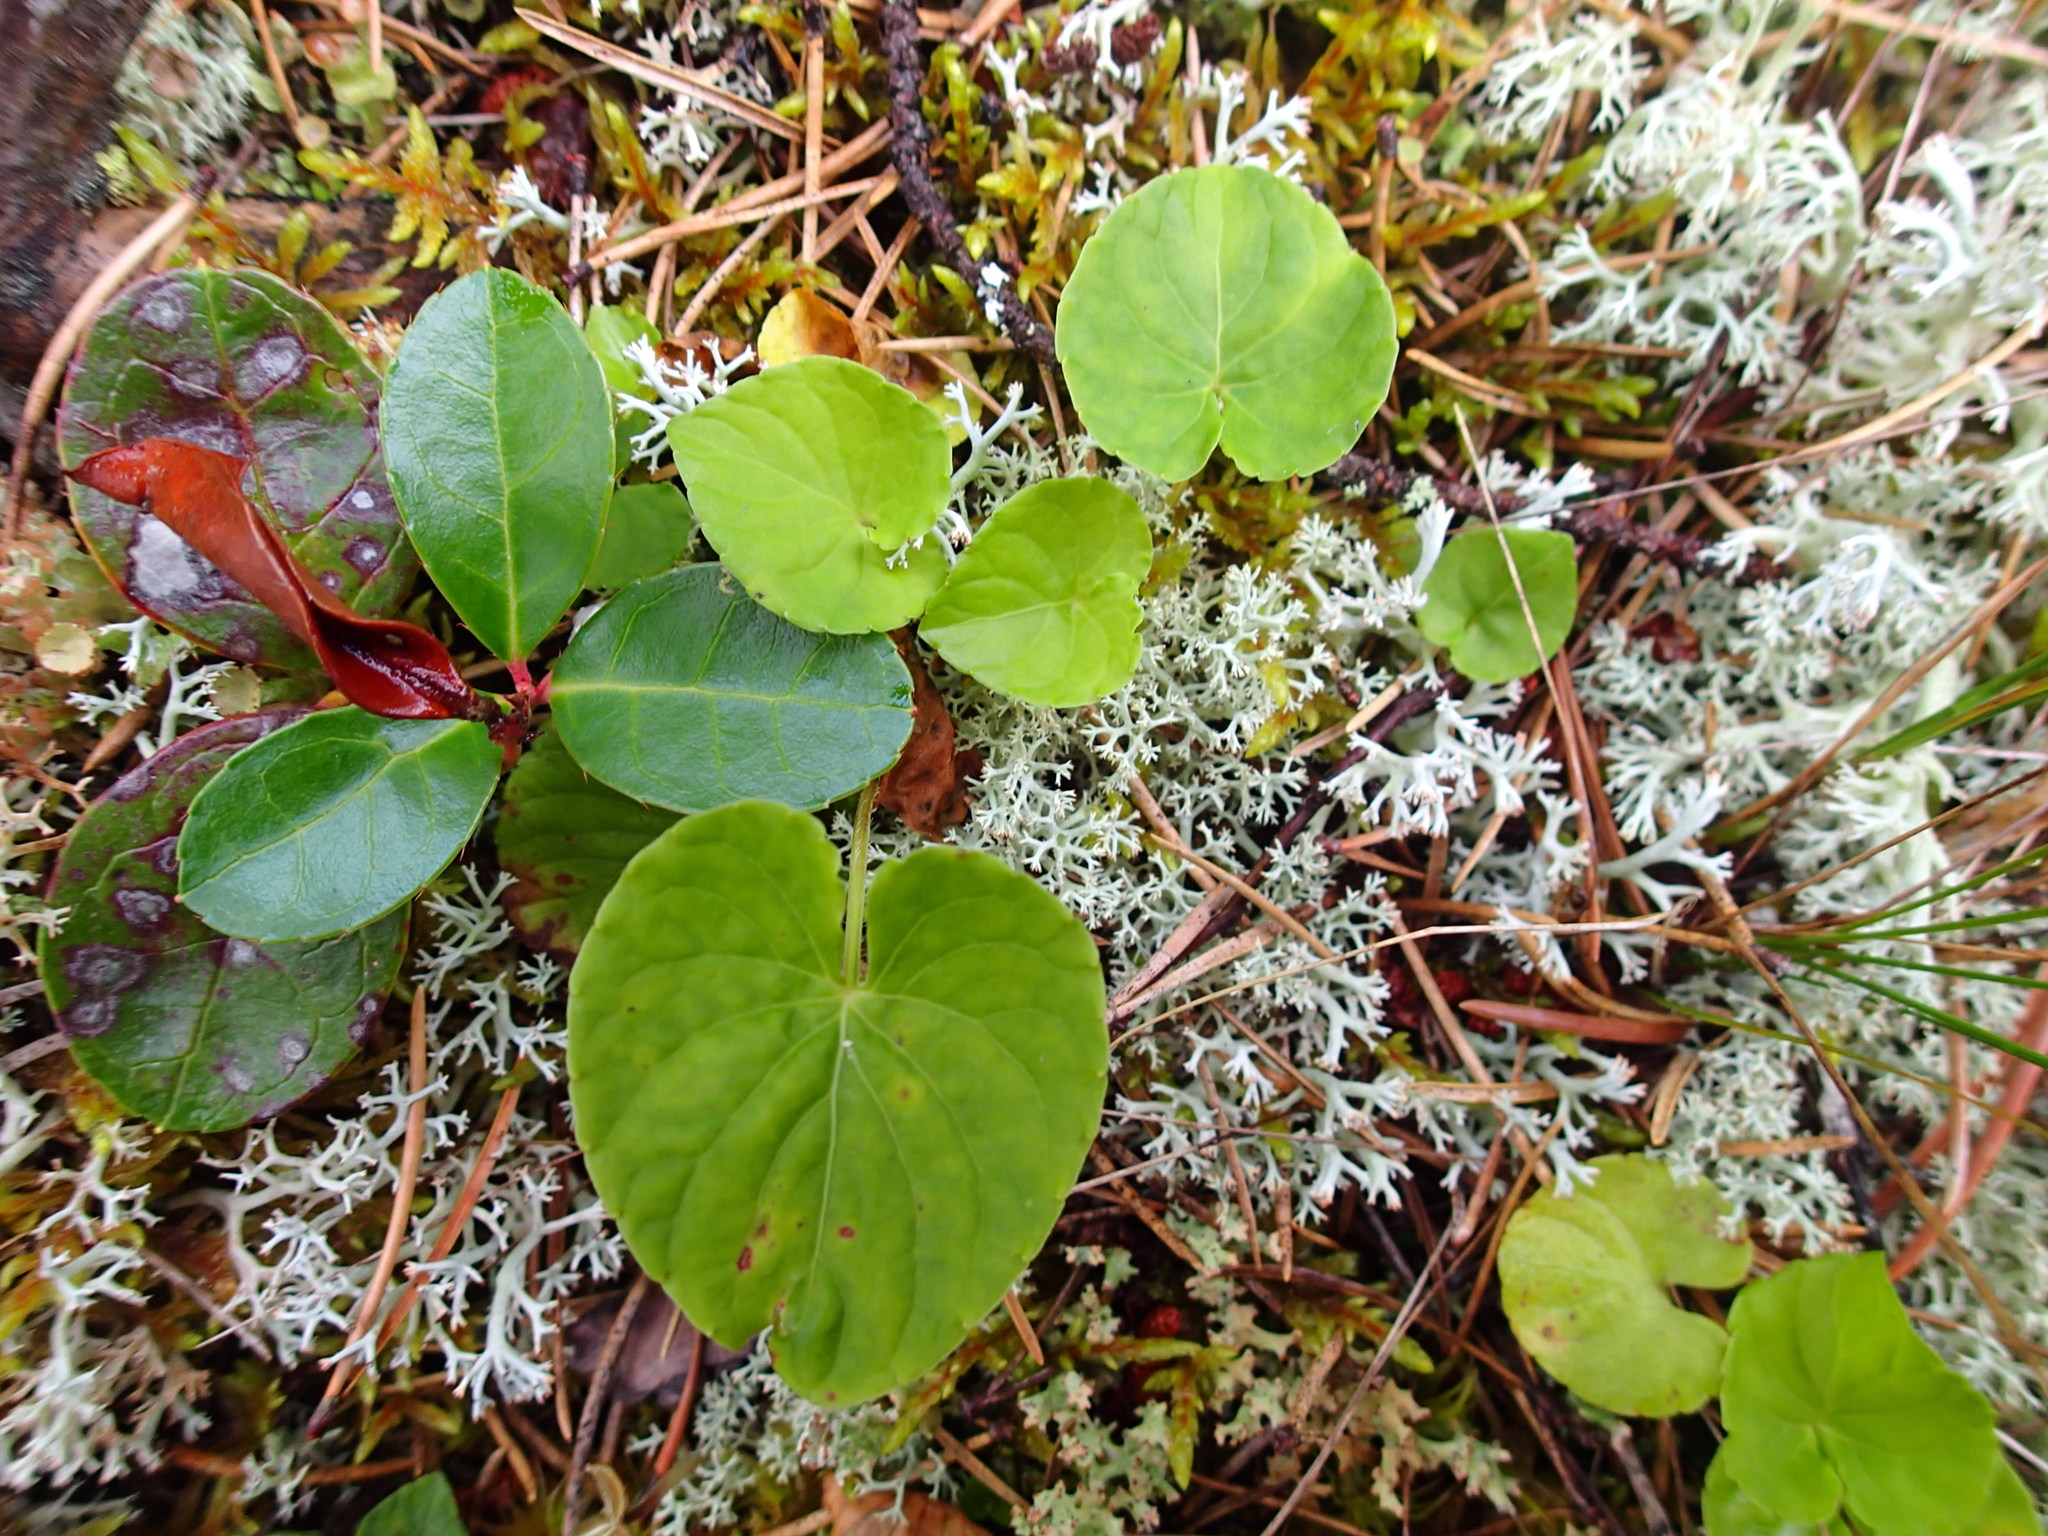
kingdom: Plantae
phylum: Tracheophyta
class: Magnoliopsida
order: Ericales
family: Ericaceae
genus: Gaultheria
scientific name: Gaultheria procumbens
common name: Checkerberry
